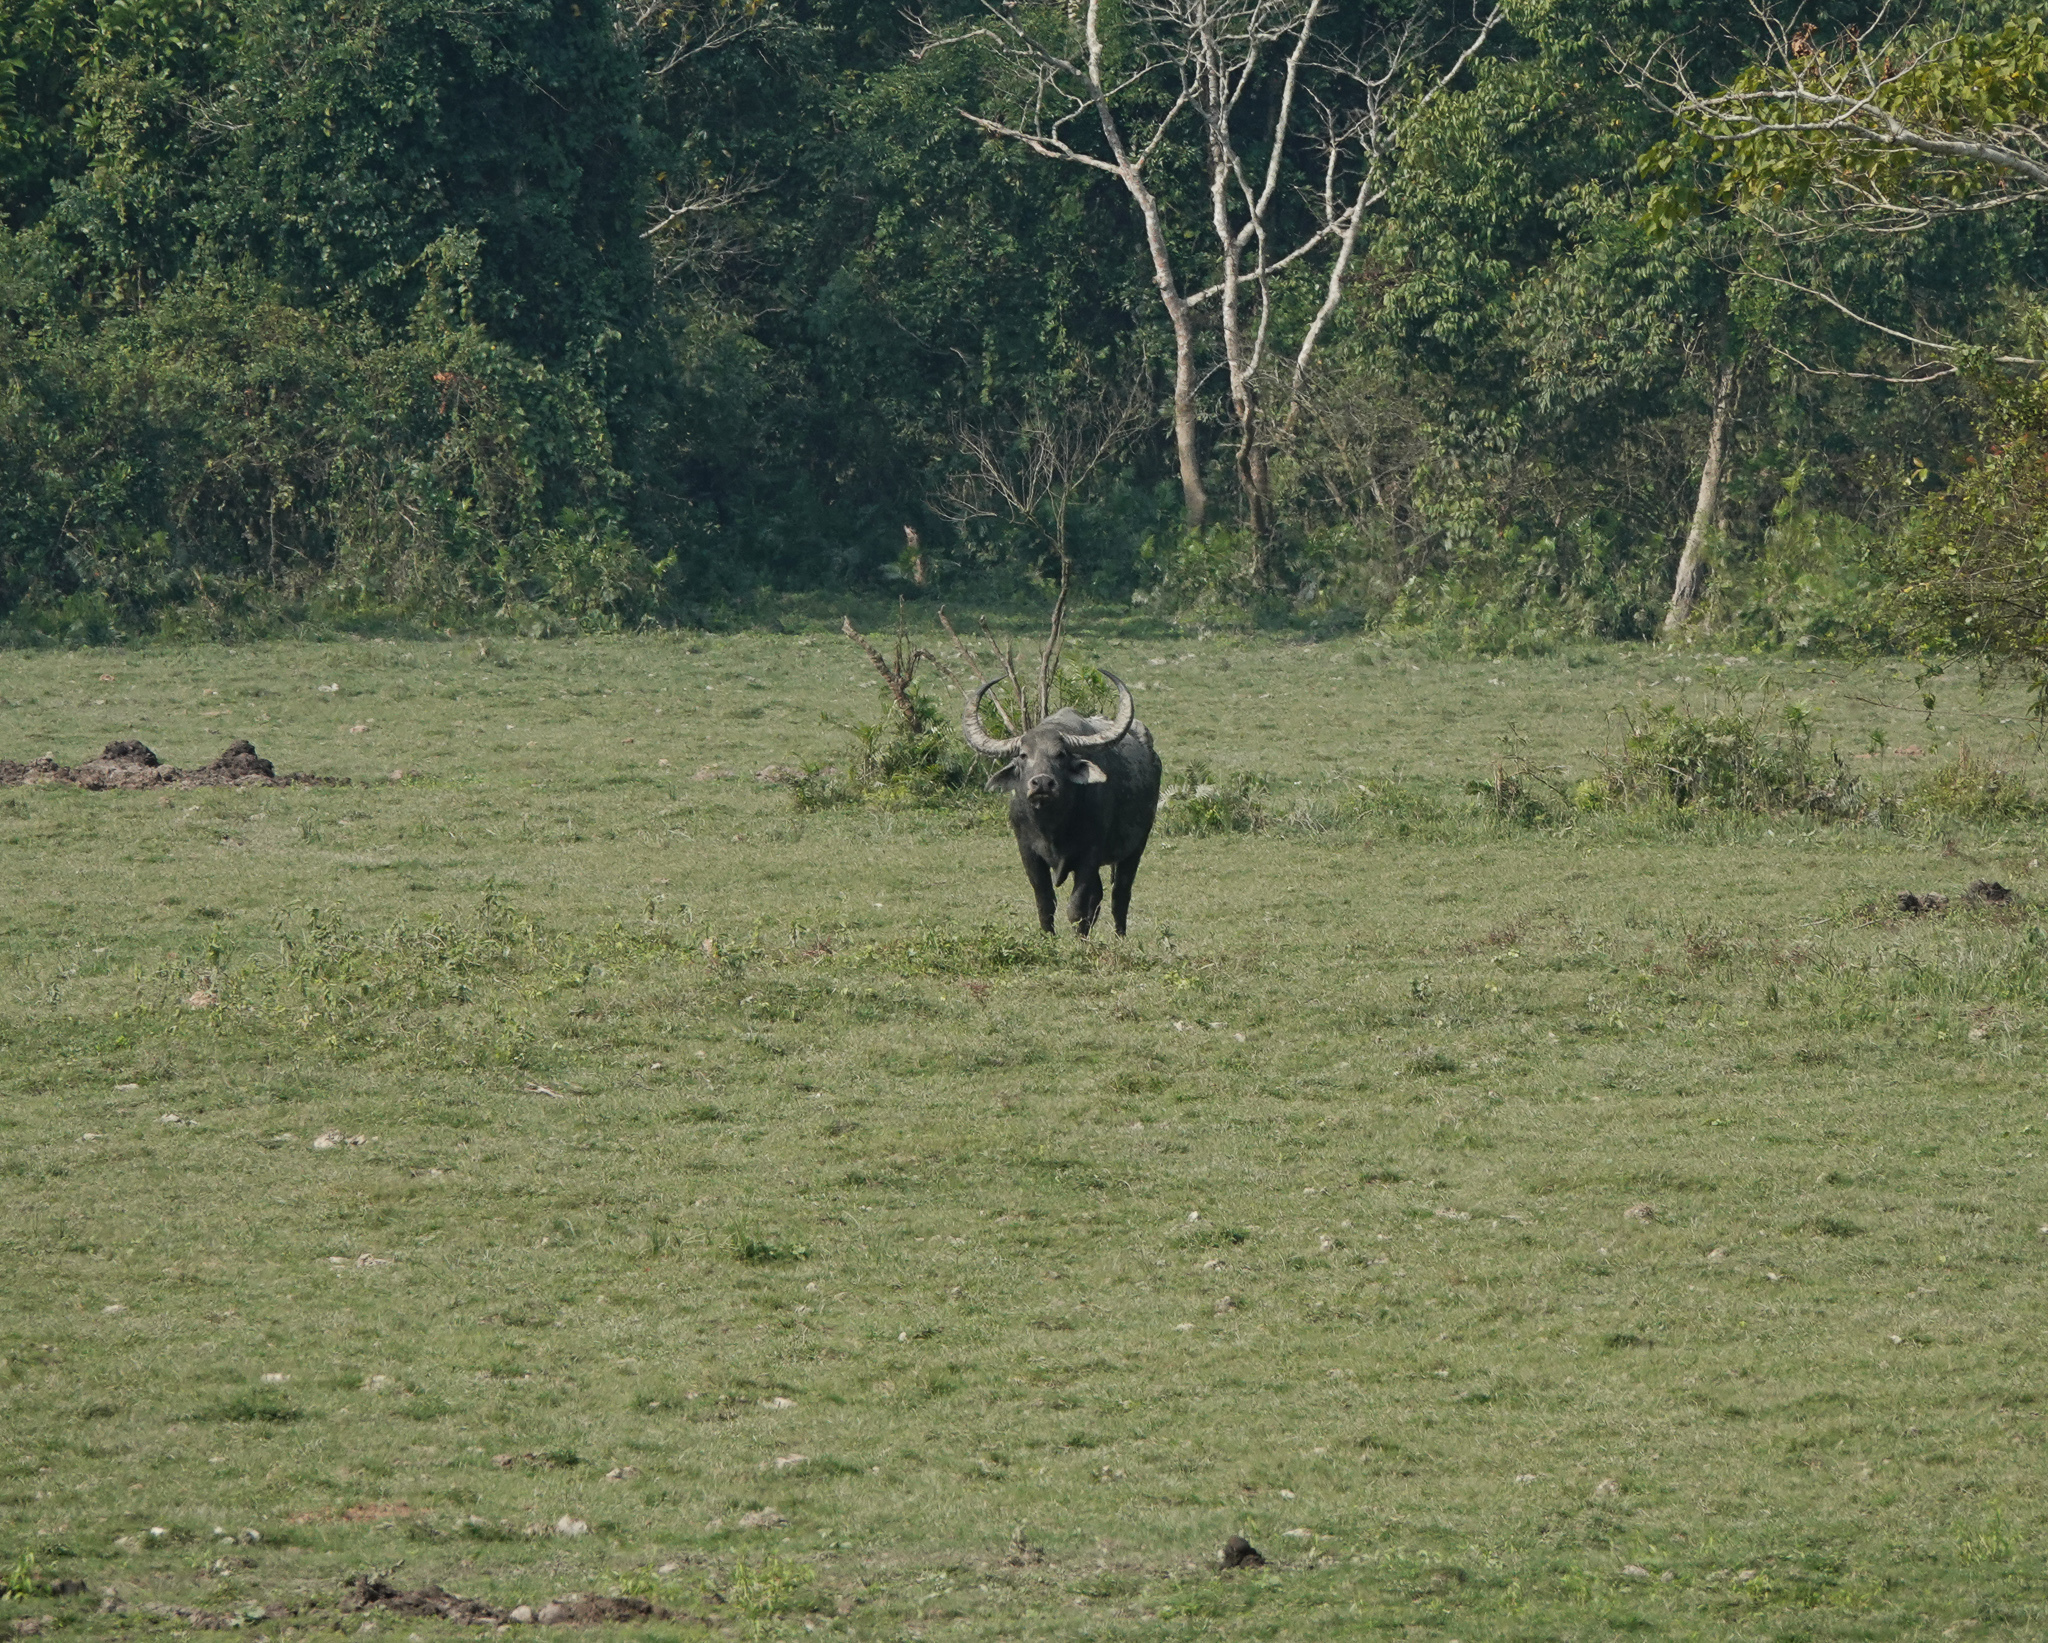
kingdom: Animalia
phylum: Chordata
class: Mammalia
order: Artiodactyla
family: Bovidae
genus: Bubalus
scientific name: Bubalus bubalis
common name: Water buffalo
